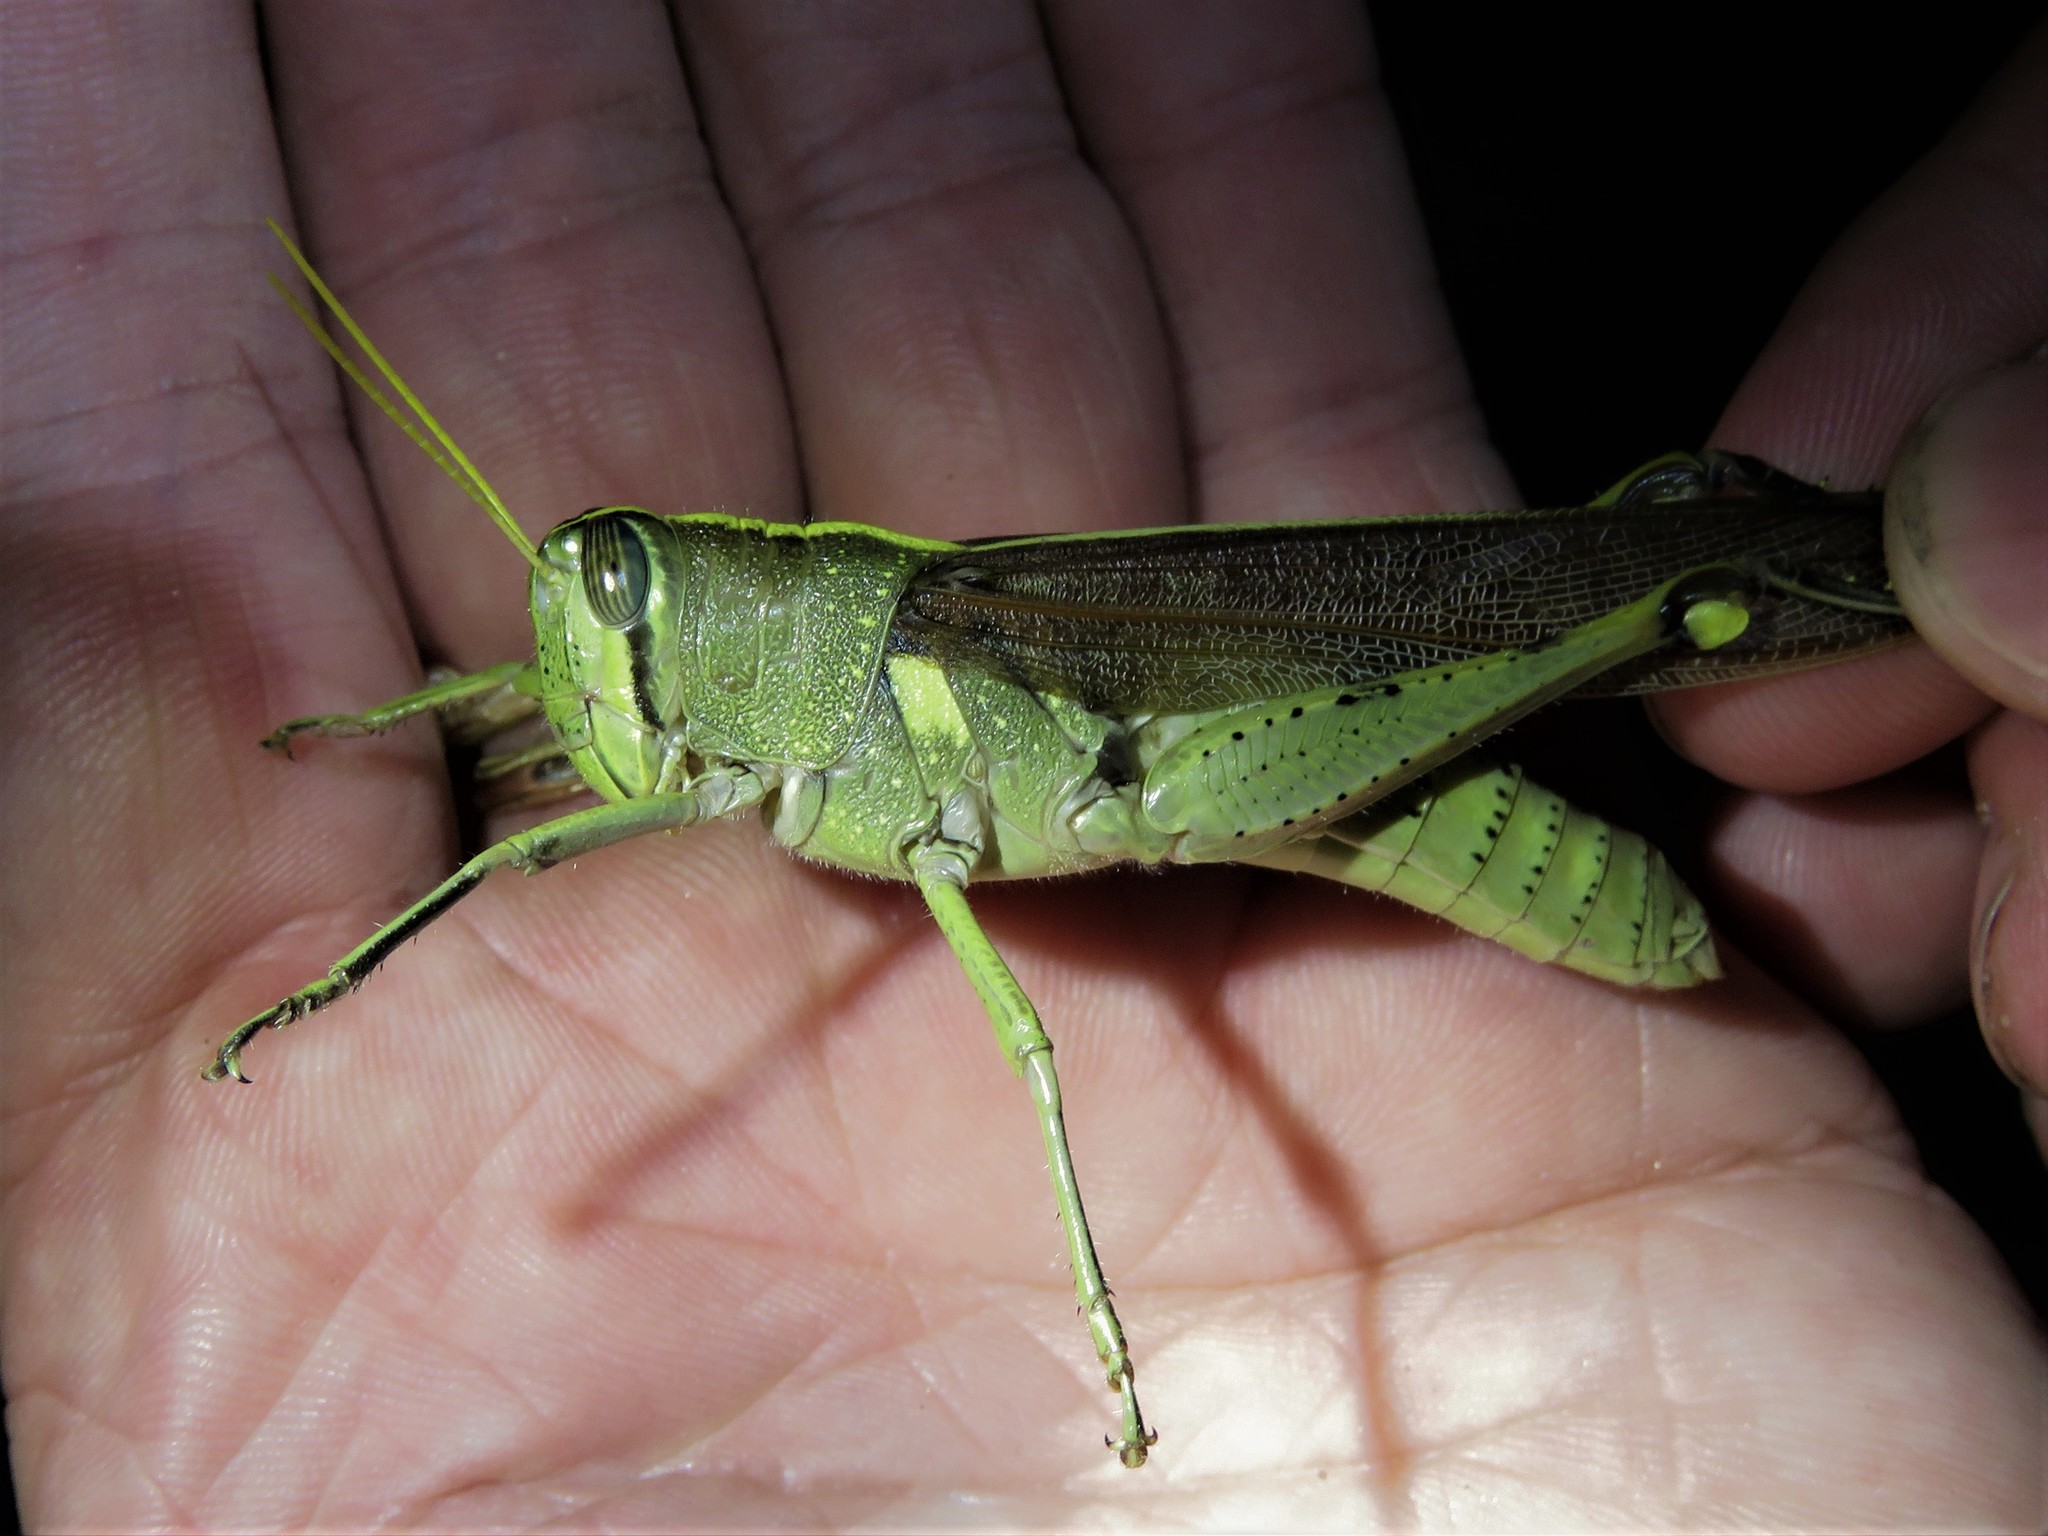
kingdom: Animalia
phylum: Arthropoda
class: Insecta
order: Orthoptera
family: Acrididae
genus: Schistocerca
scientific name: Schistocerca obscura
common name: Obscure bird grasshopper
